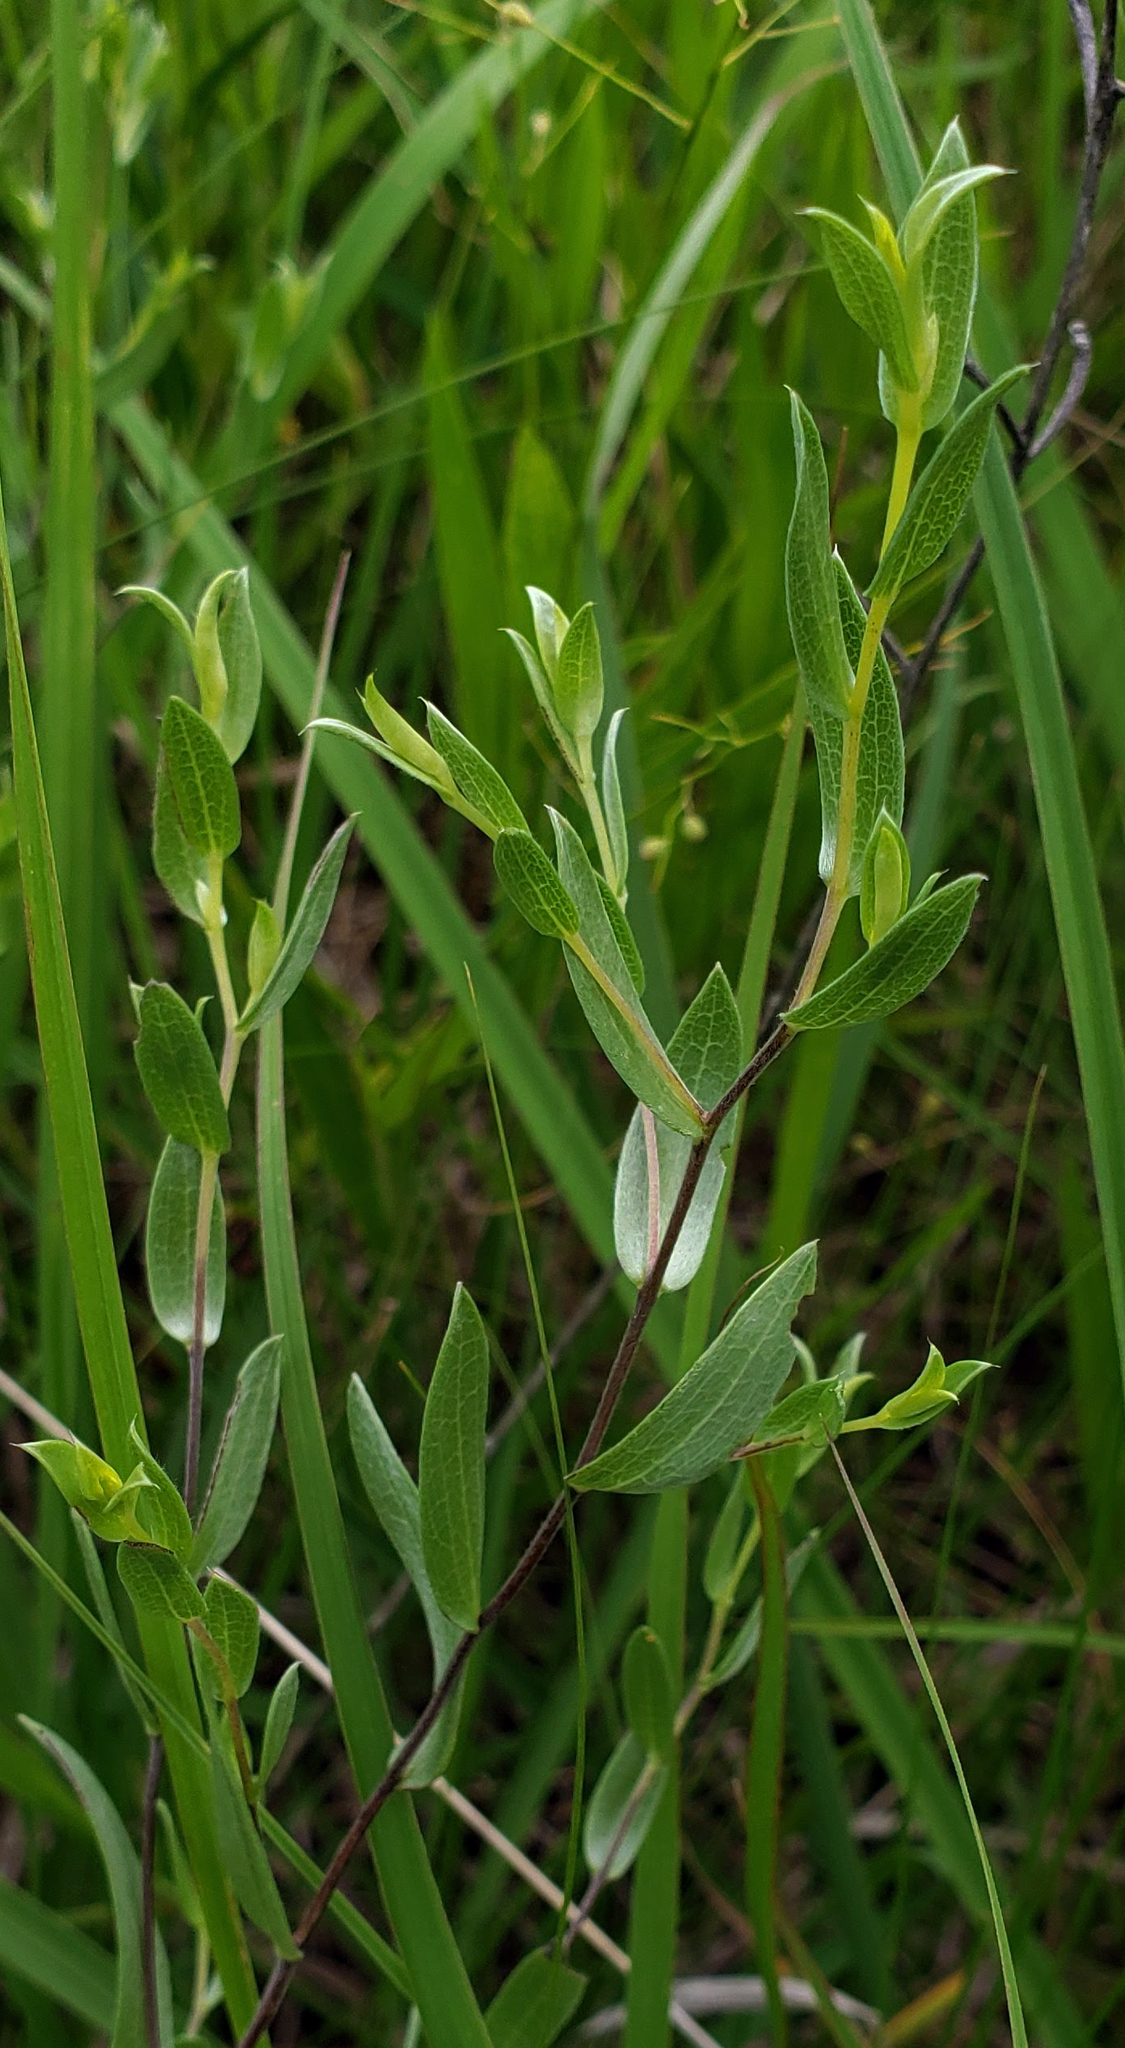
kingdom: Plantae
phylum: Tracheophyta
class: Magnoliopsida
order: Asterales
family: Asteraceae
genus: Symphyotrichum
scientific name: Symphyotrichum sericeum
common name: Silky aster
